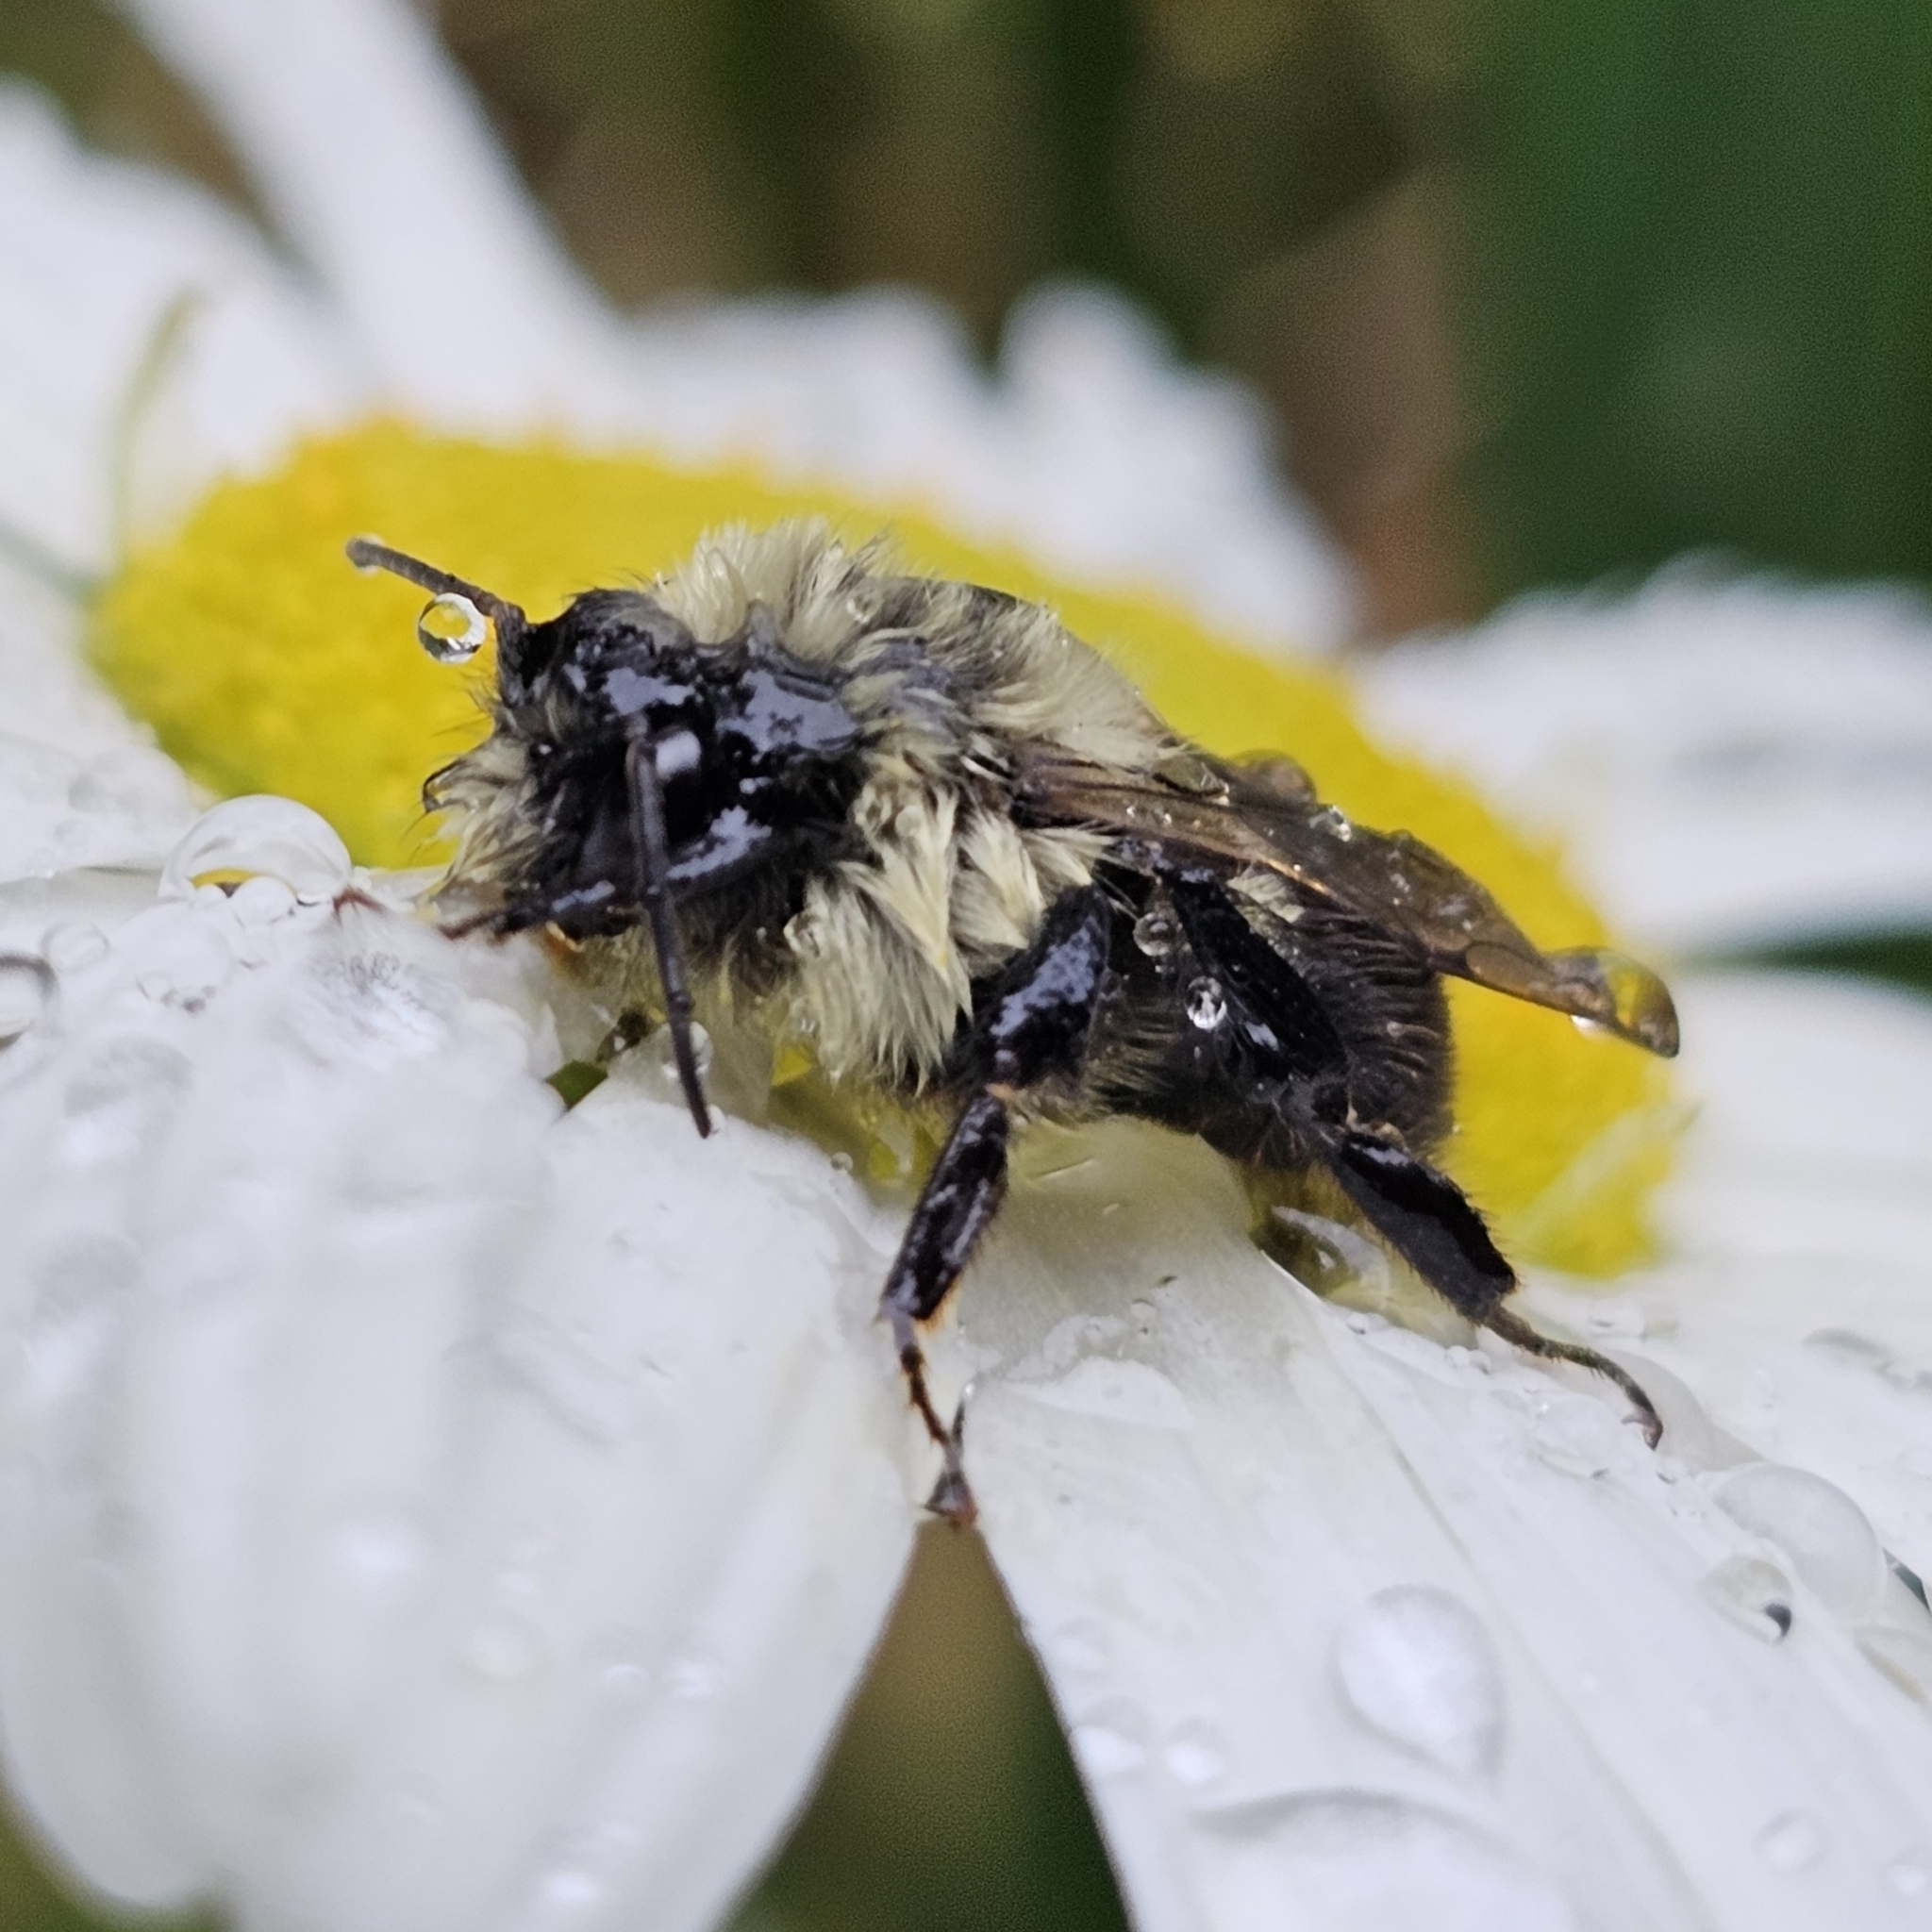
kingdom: Animalia
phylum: Arthropoda
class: Insecta
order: Hymenoptera
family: Apidae
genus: Bombus
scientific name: Bombus impatiens
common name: Common eastern bumble bee
